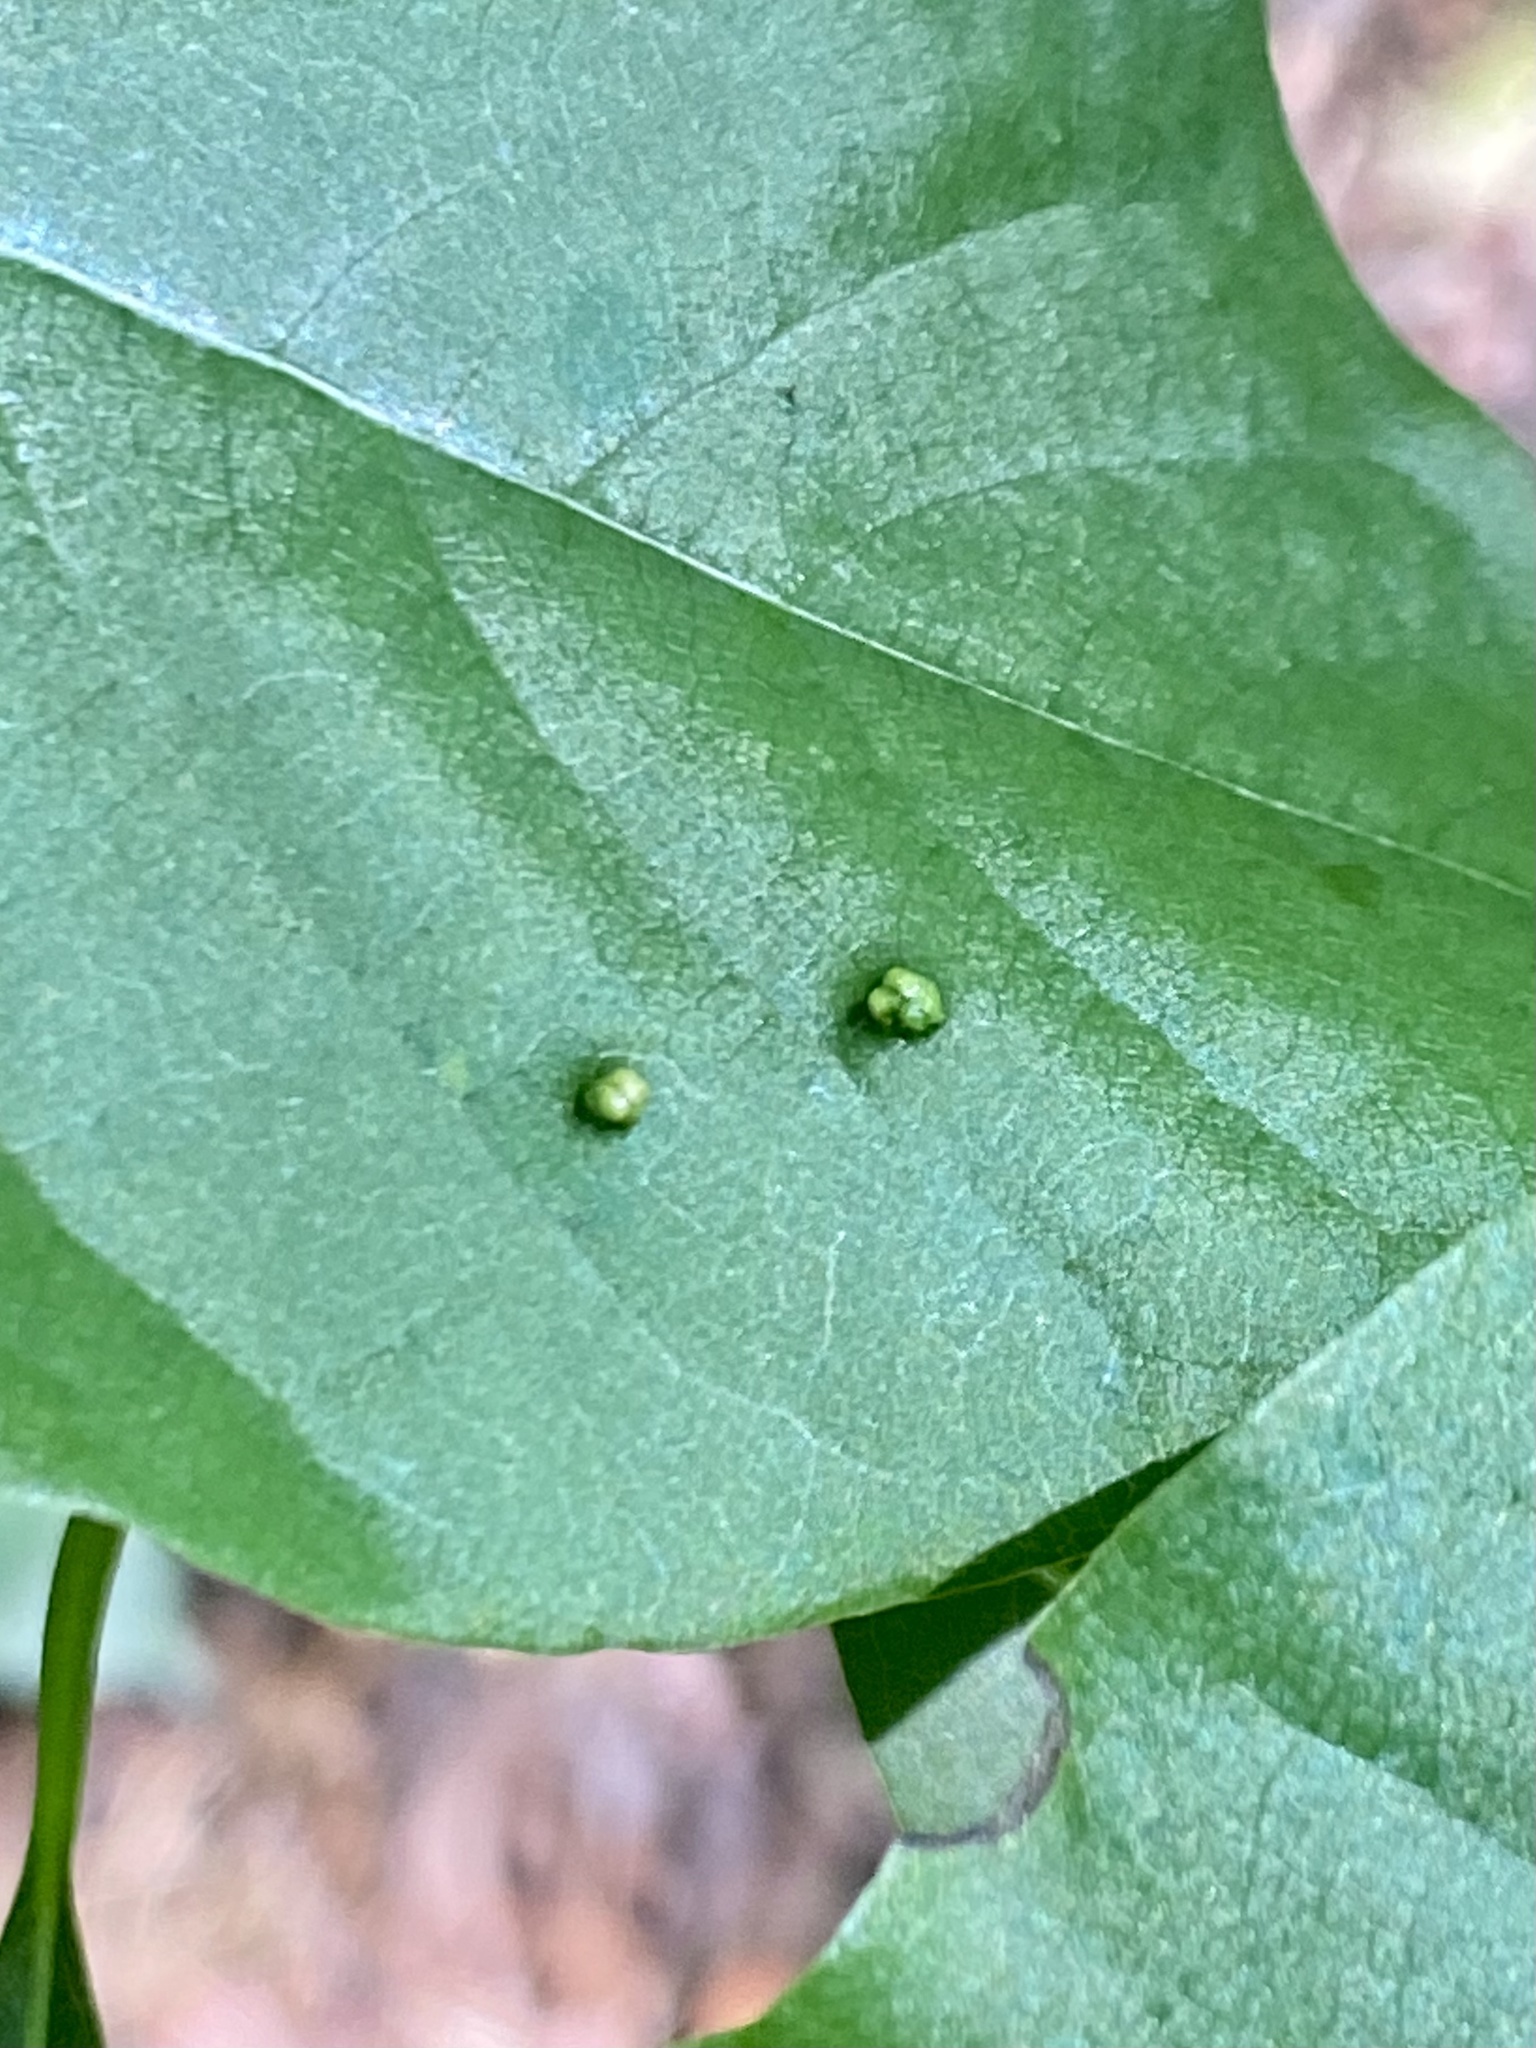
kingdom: Animalia
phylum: Arthropoda
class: Arachnida
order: Trombidiformes
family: Eriophyidae
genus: Aceria
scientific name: Aceria
